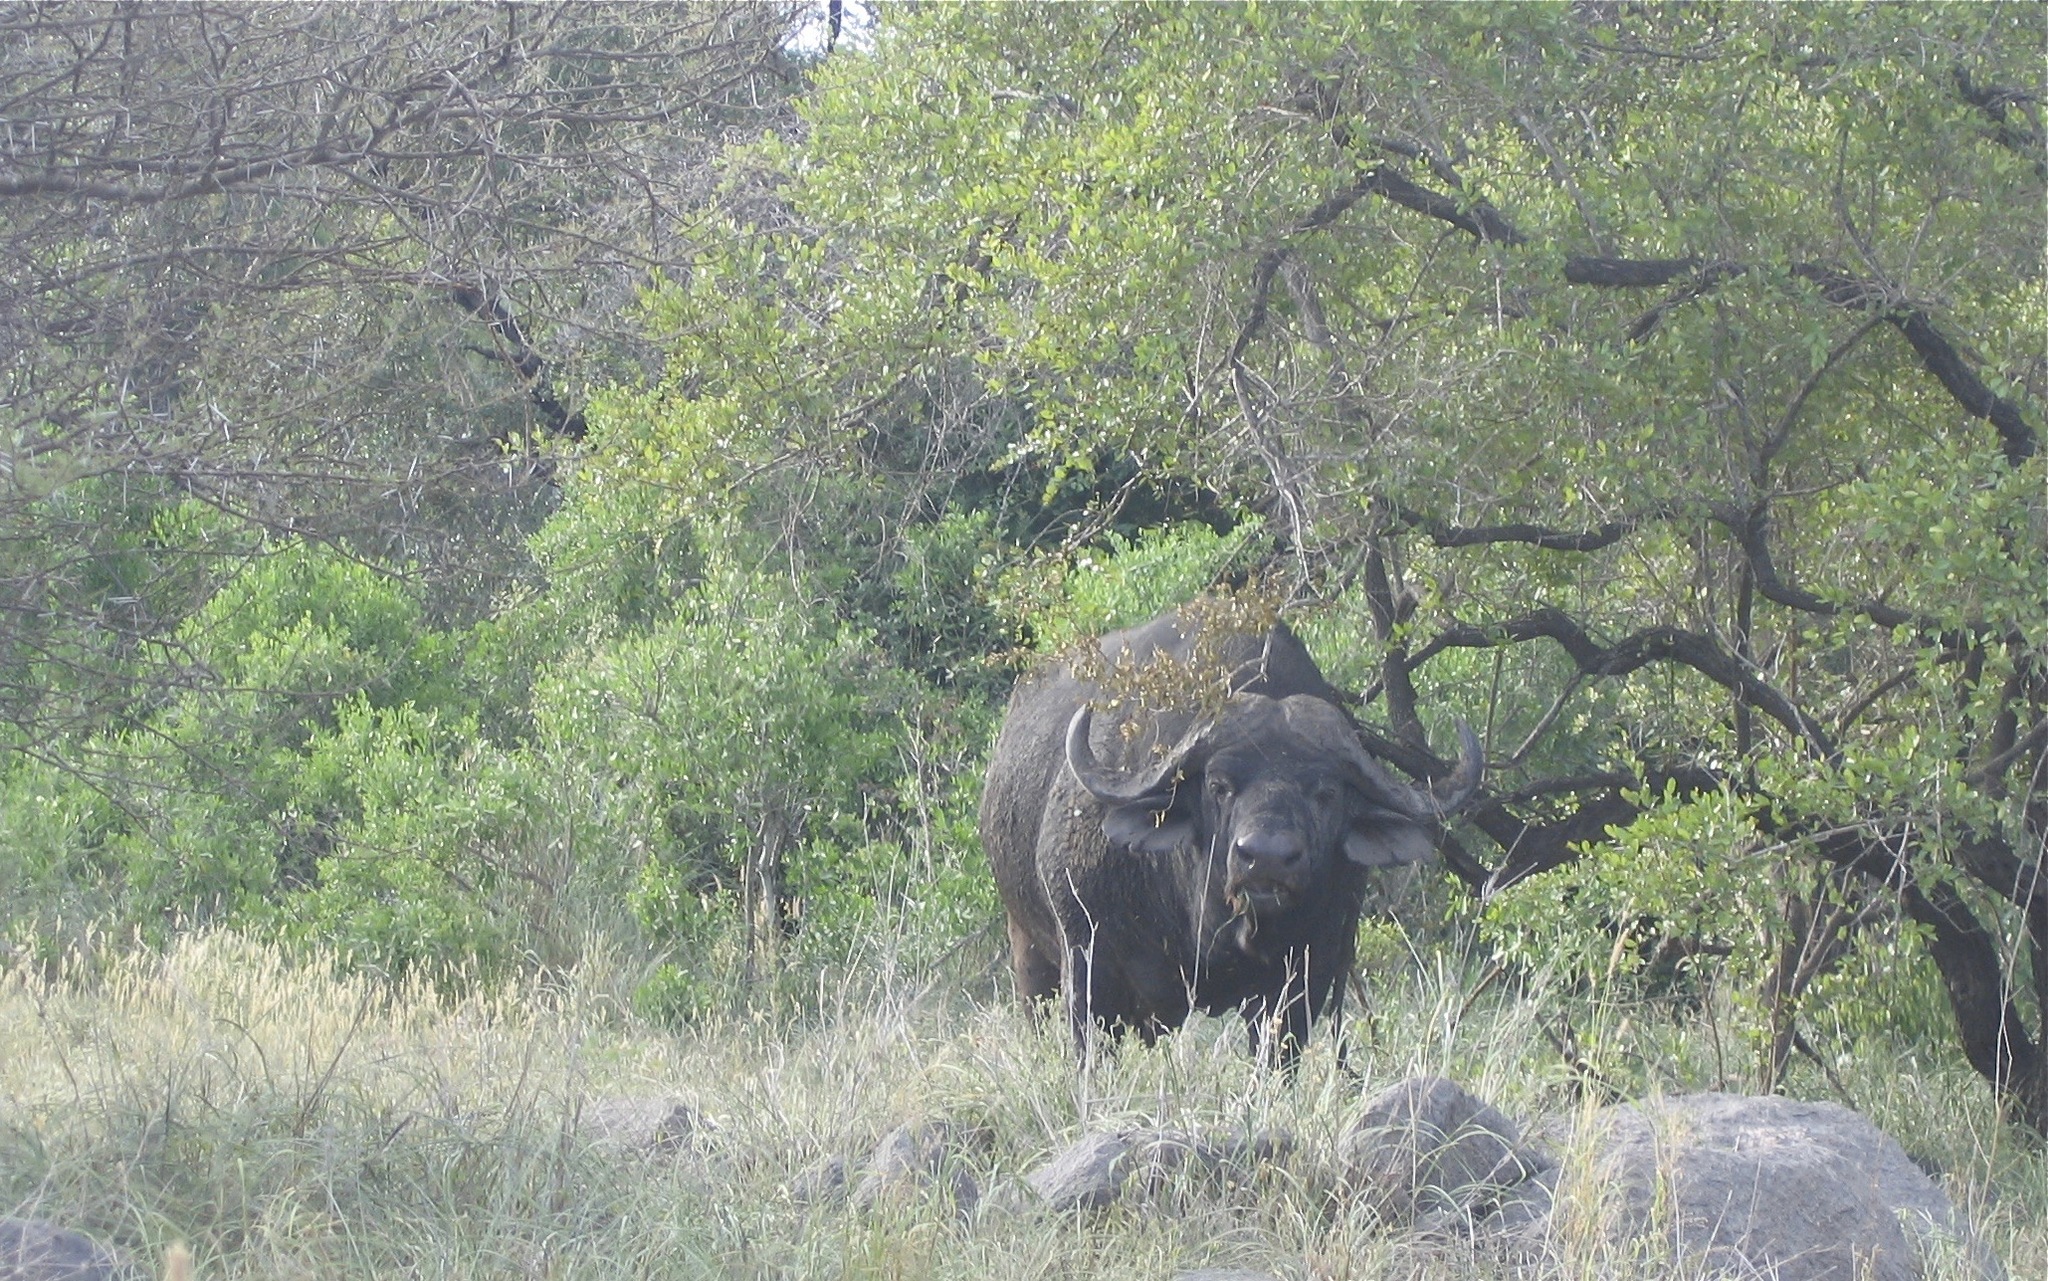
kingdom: Animalia
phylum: Chordata
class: Mammalia
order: Artiodactyla
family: Bovidae
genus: Syncerus
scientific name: Syncerus caffer
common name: African buffalo
